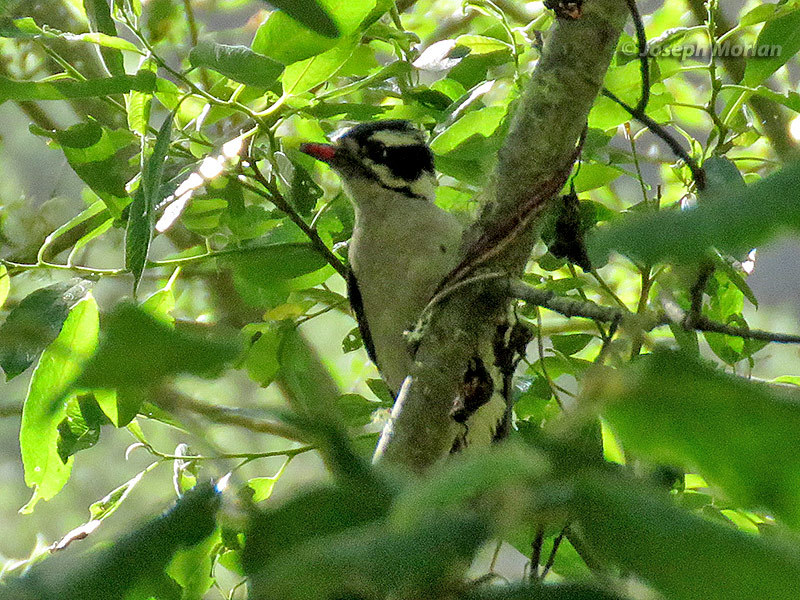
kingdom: Animalia
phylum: Chordata
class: Aves
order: Piciformes
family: Picidae
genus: Dryobates
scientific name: Dryobates pubescens
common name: Downy woodpecker
